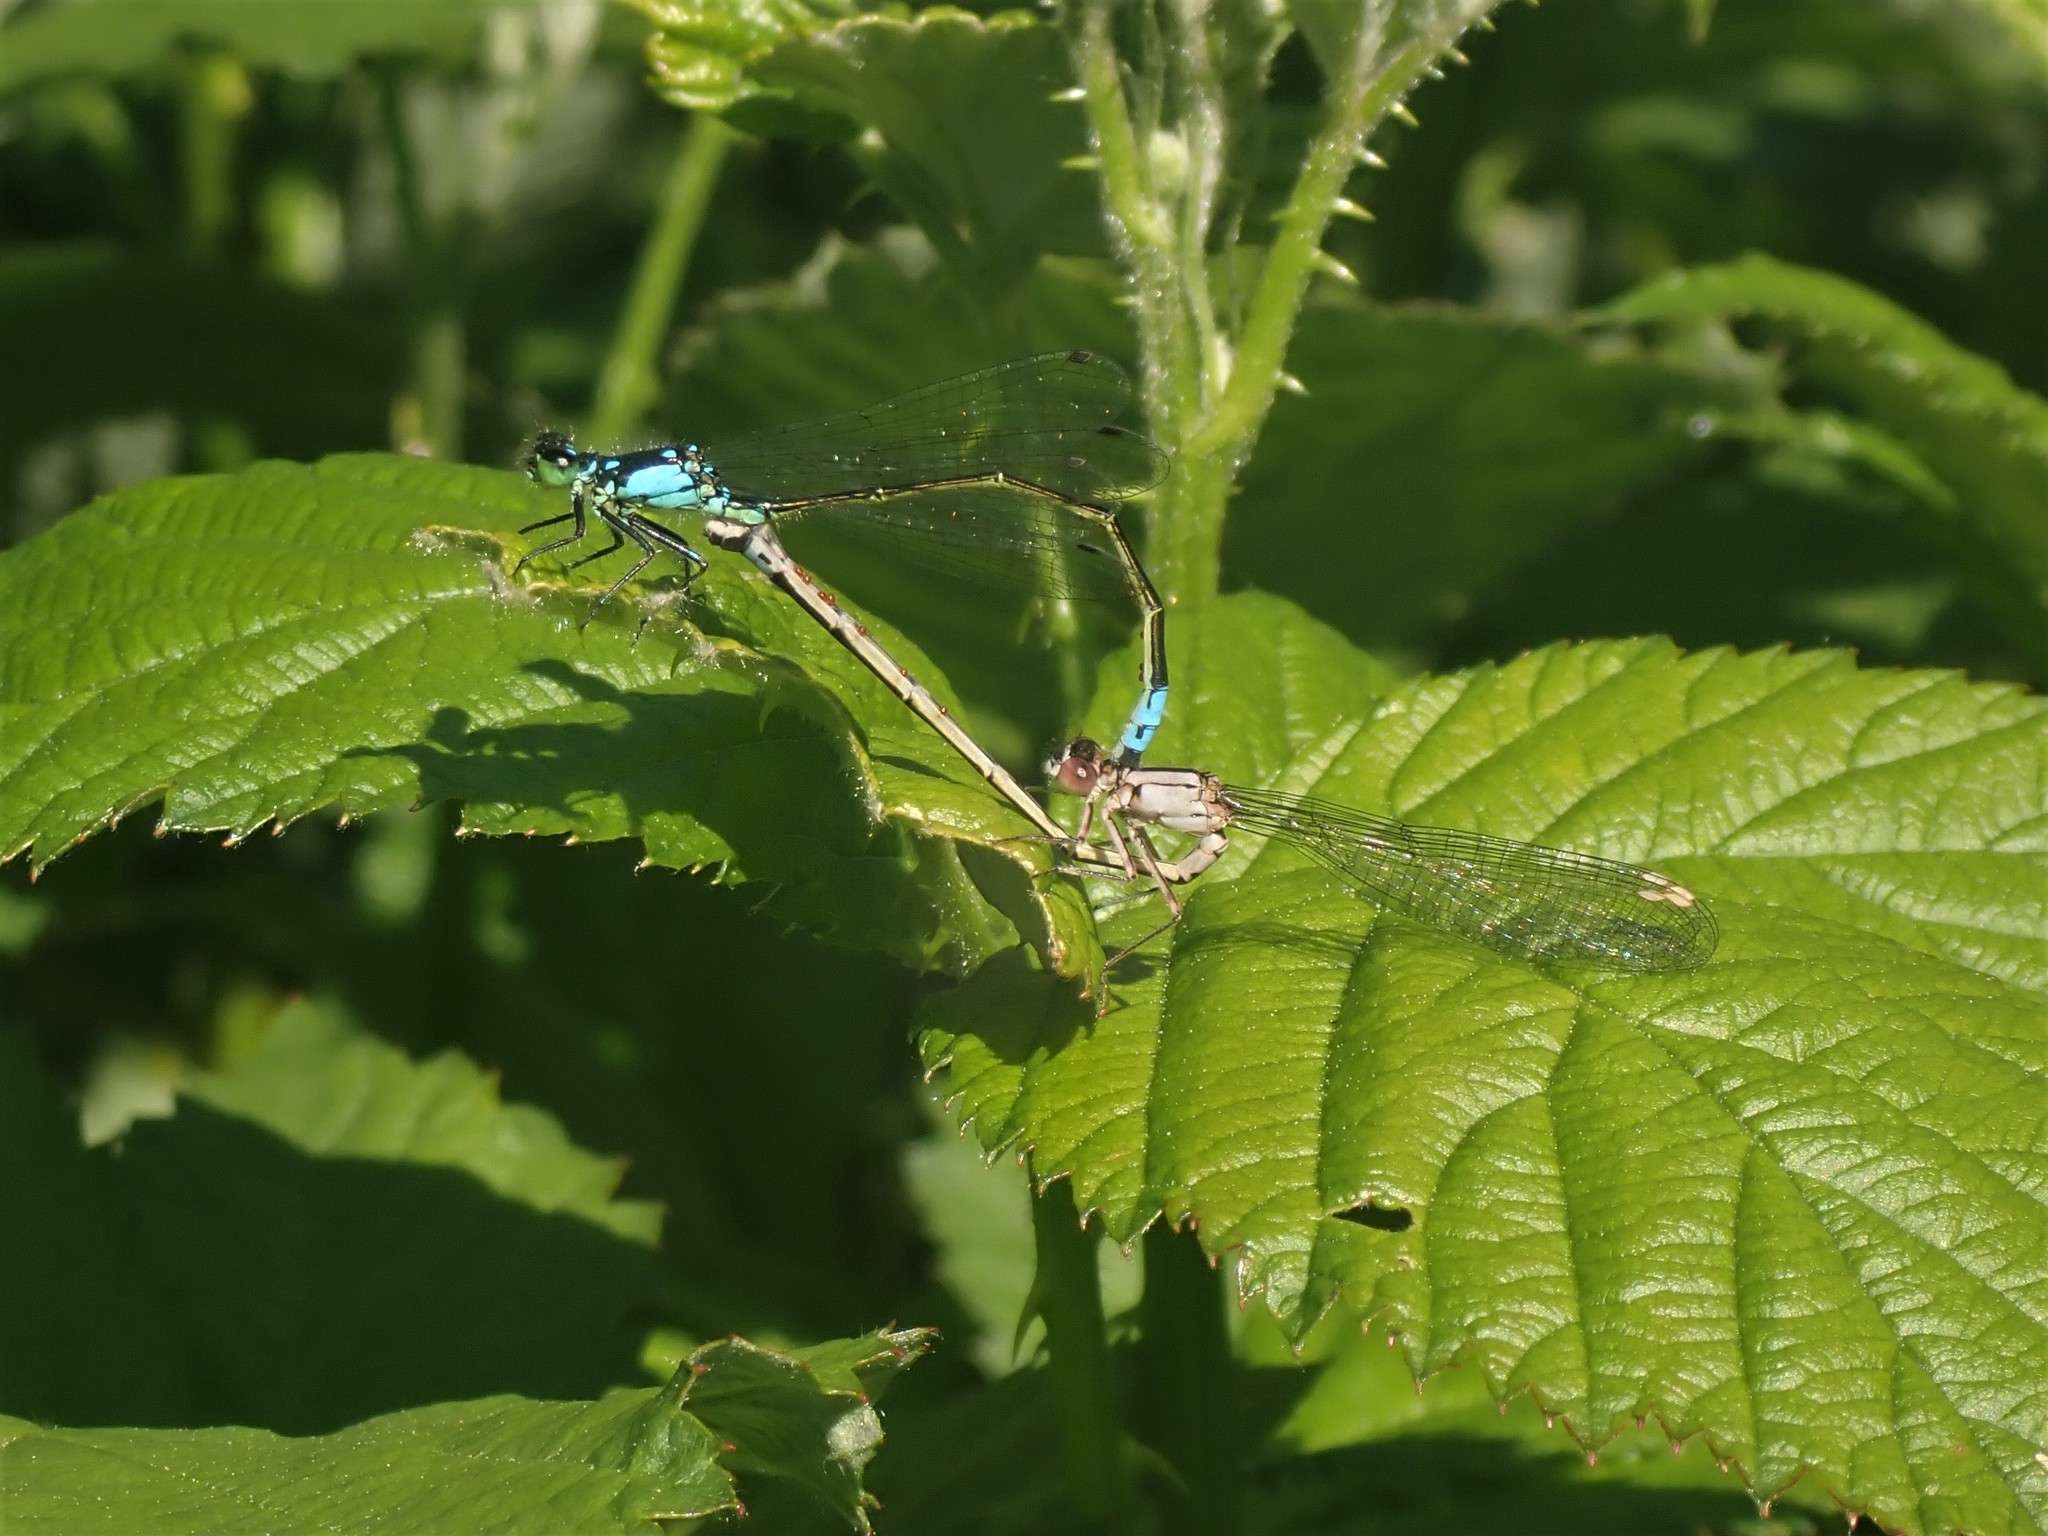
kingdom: Animalia
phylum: Arthropoda
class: Insecta
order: Odonata
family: Coenagrionidae
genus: Ischnura
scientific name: Ischnura cervula
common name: Pacific forktail
